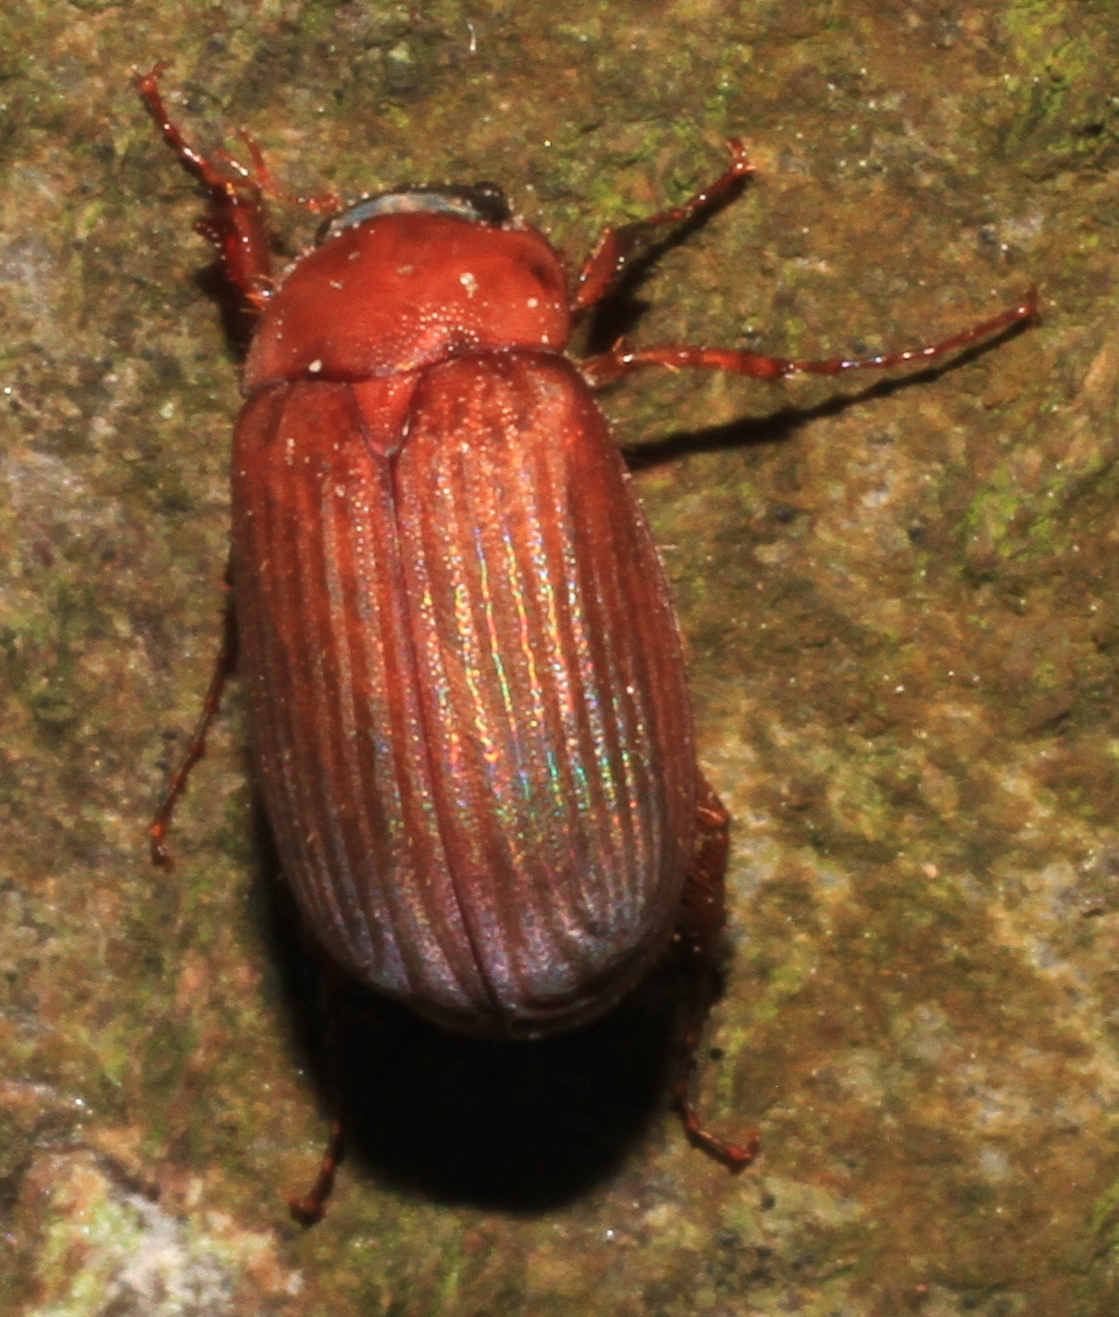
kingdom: Animalia
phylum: Arthropoda
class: Insecta
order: Coleoptera
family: Scarabaeidae
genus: Serica
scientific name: Serica brunnea
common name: Brown chafer
